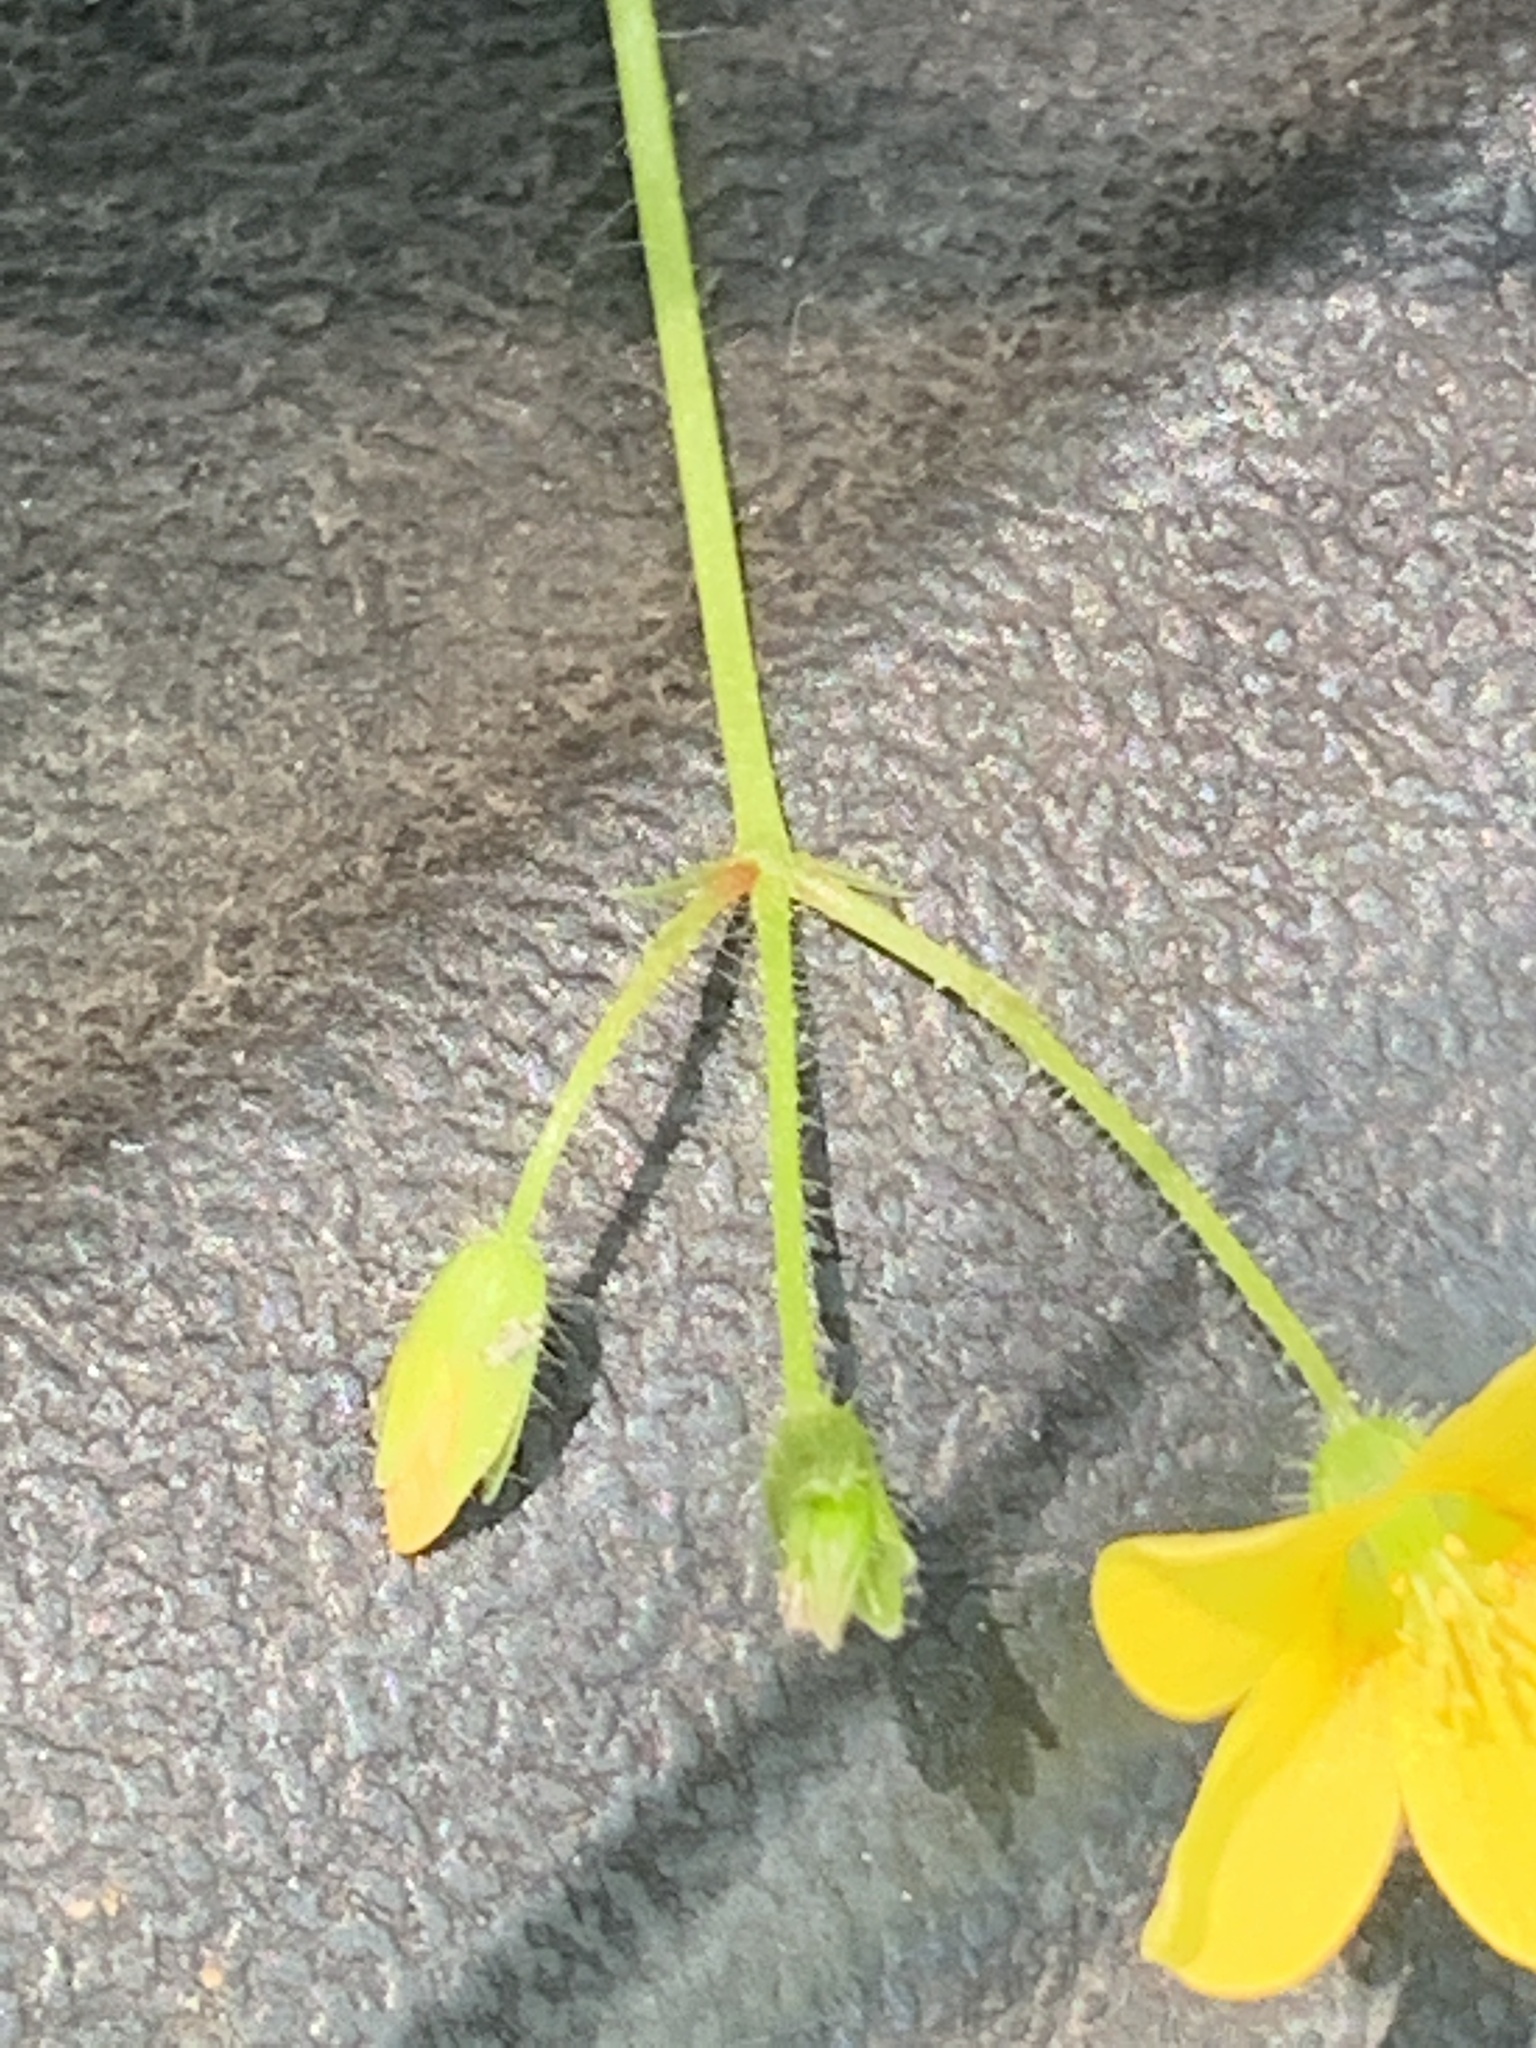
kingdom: Plantae
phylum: Tracheophyta
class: Magnoliopsida
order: Oxalidales
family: Oxalidaceae
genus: Oxalis
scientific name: Oxalis stricta
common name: Upright yellow-sorrel
